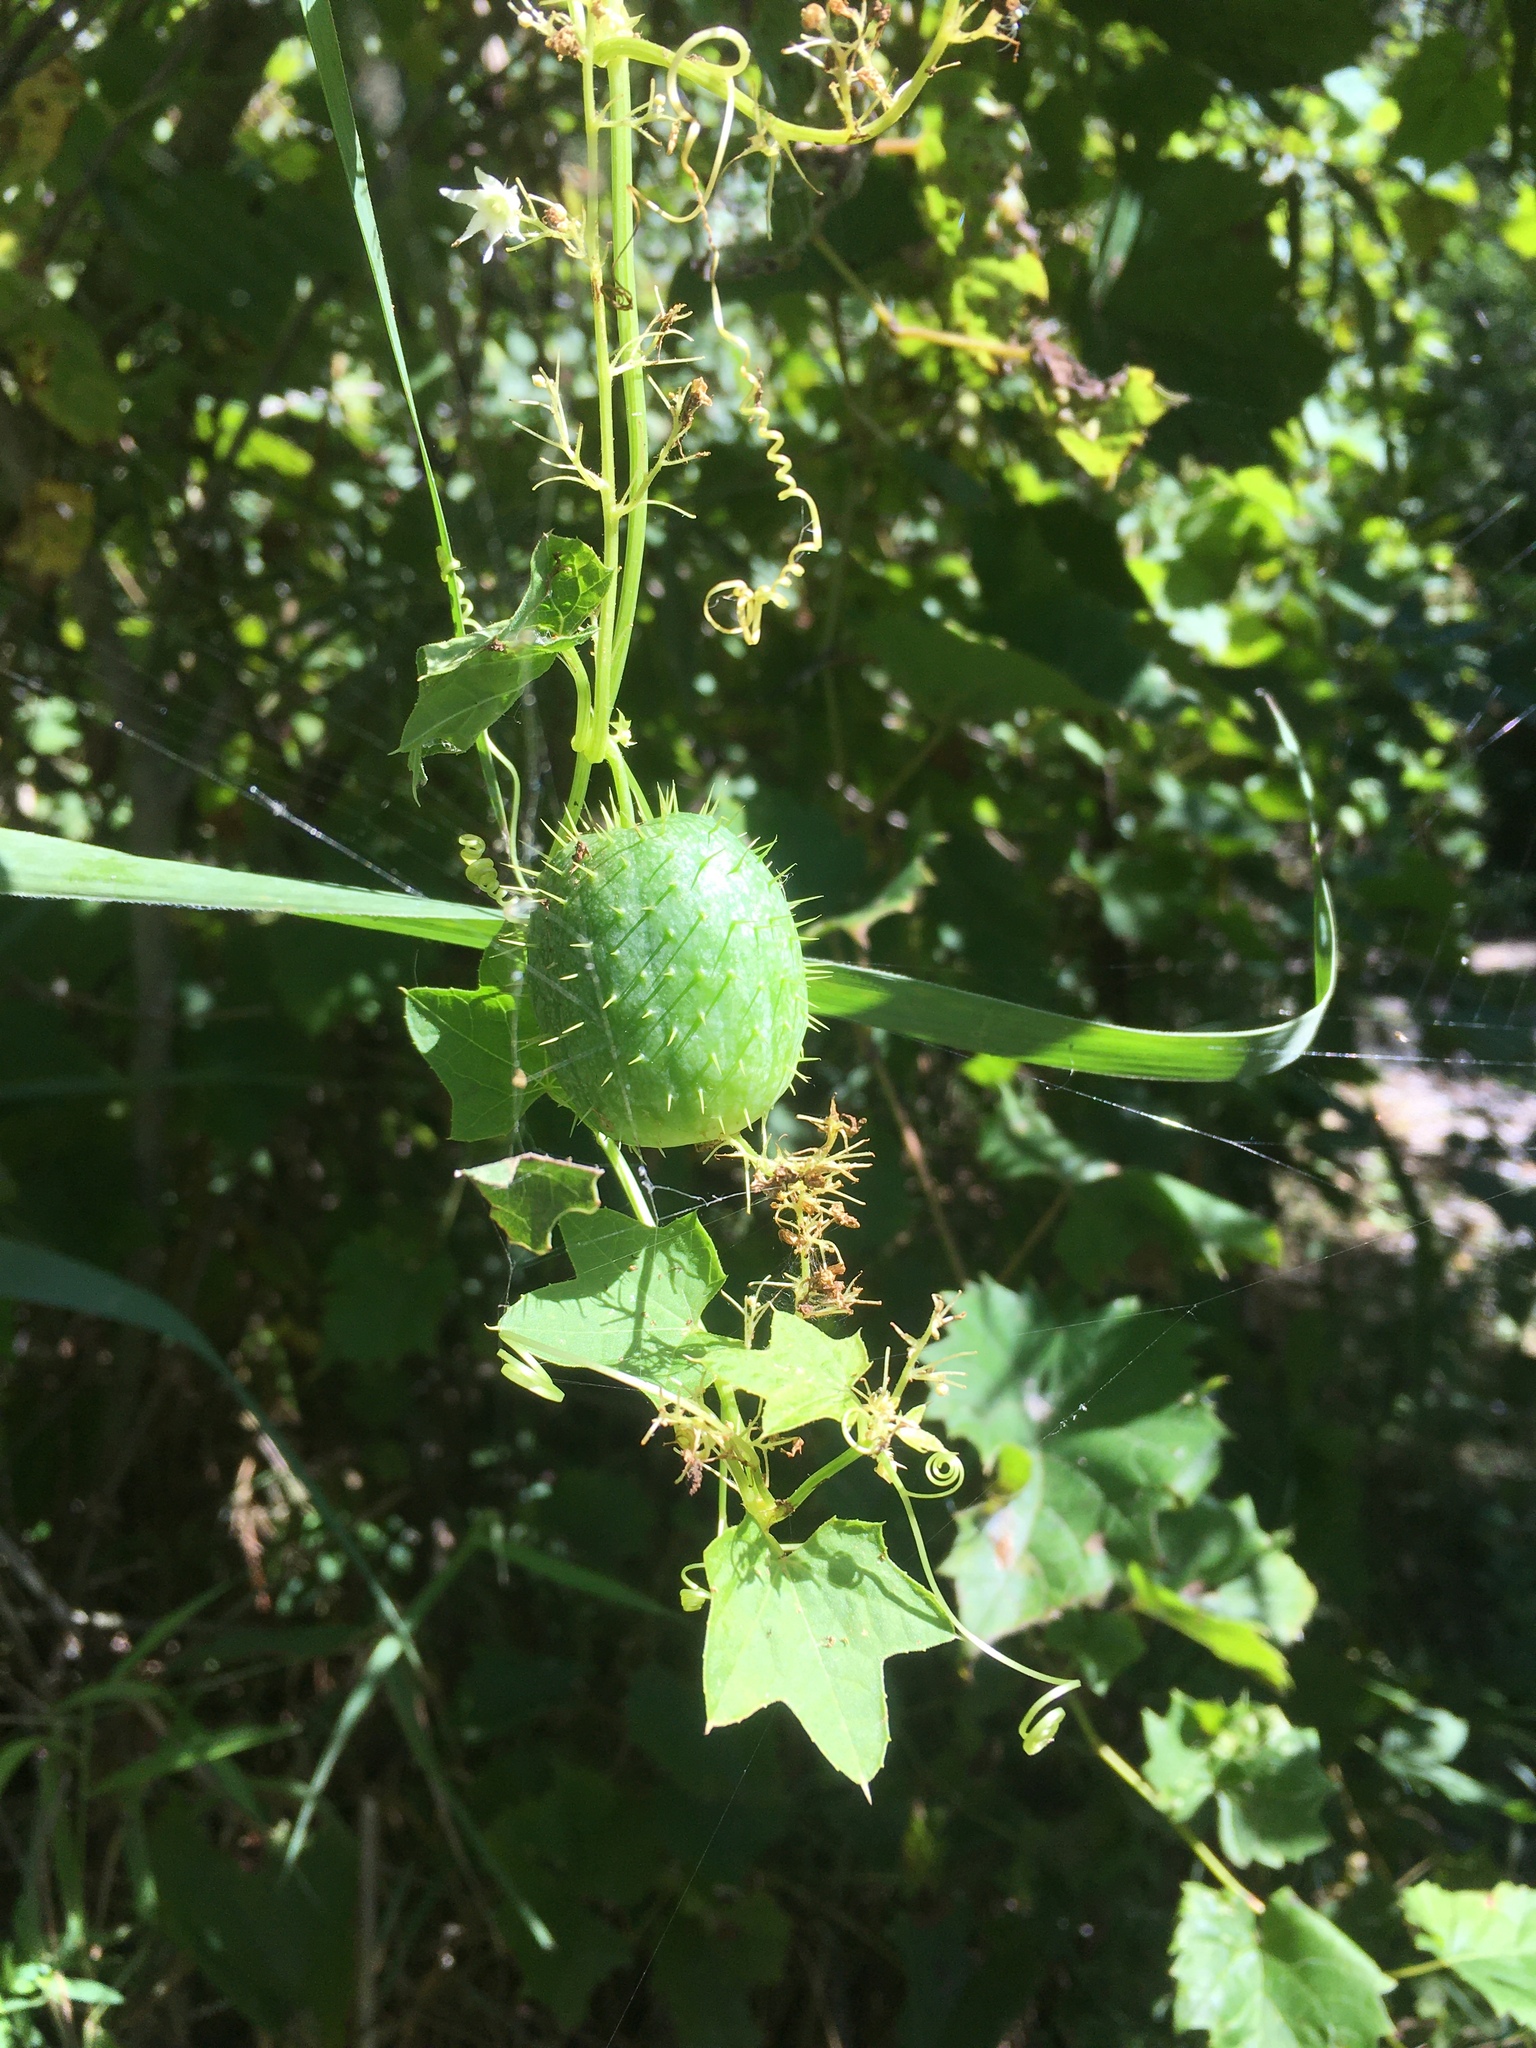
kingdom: Plantae
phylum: Tracheophyta
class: Magnoliopsida
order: Cucurbitales
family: Cucurbitaceae
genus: Echinocystis
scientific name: Echinocystis lobata
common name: Wild cucumber
